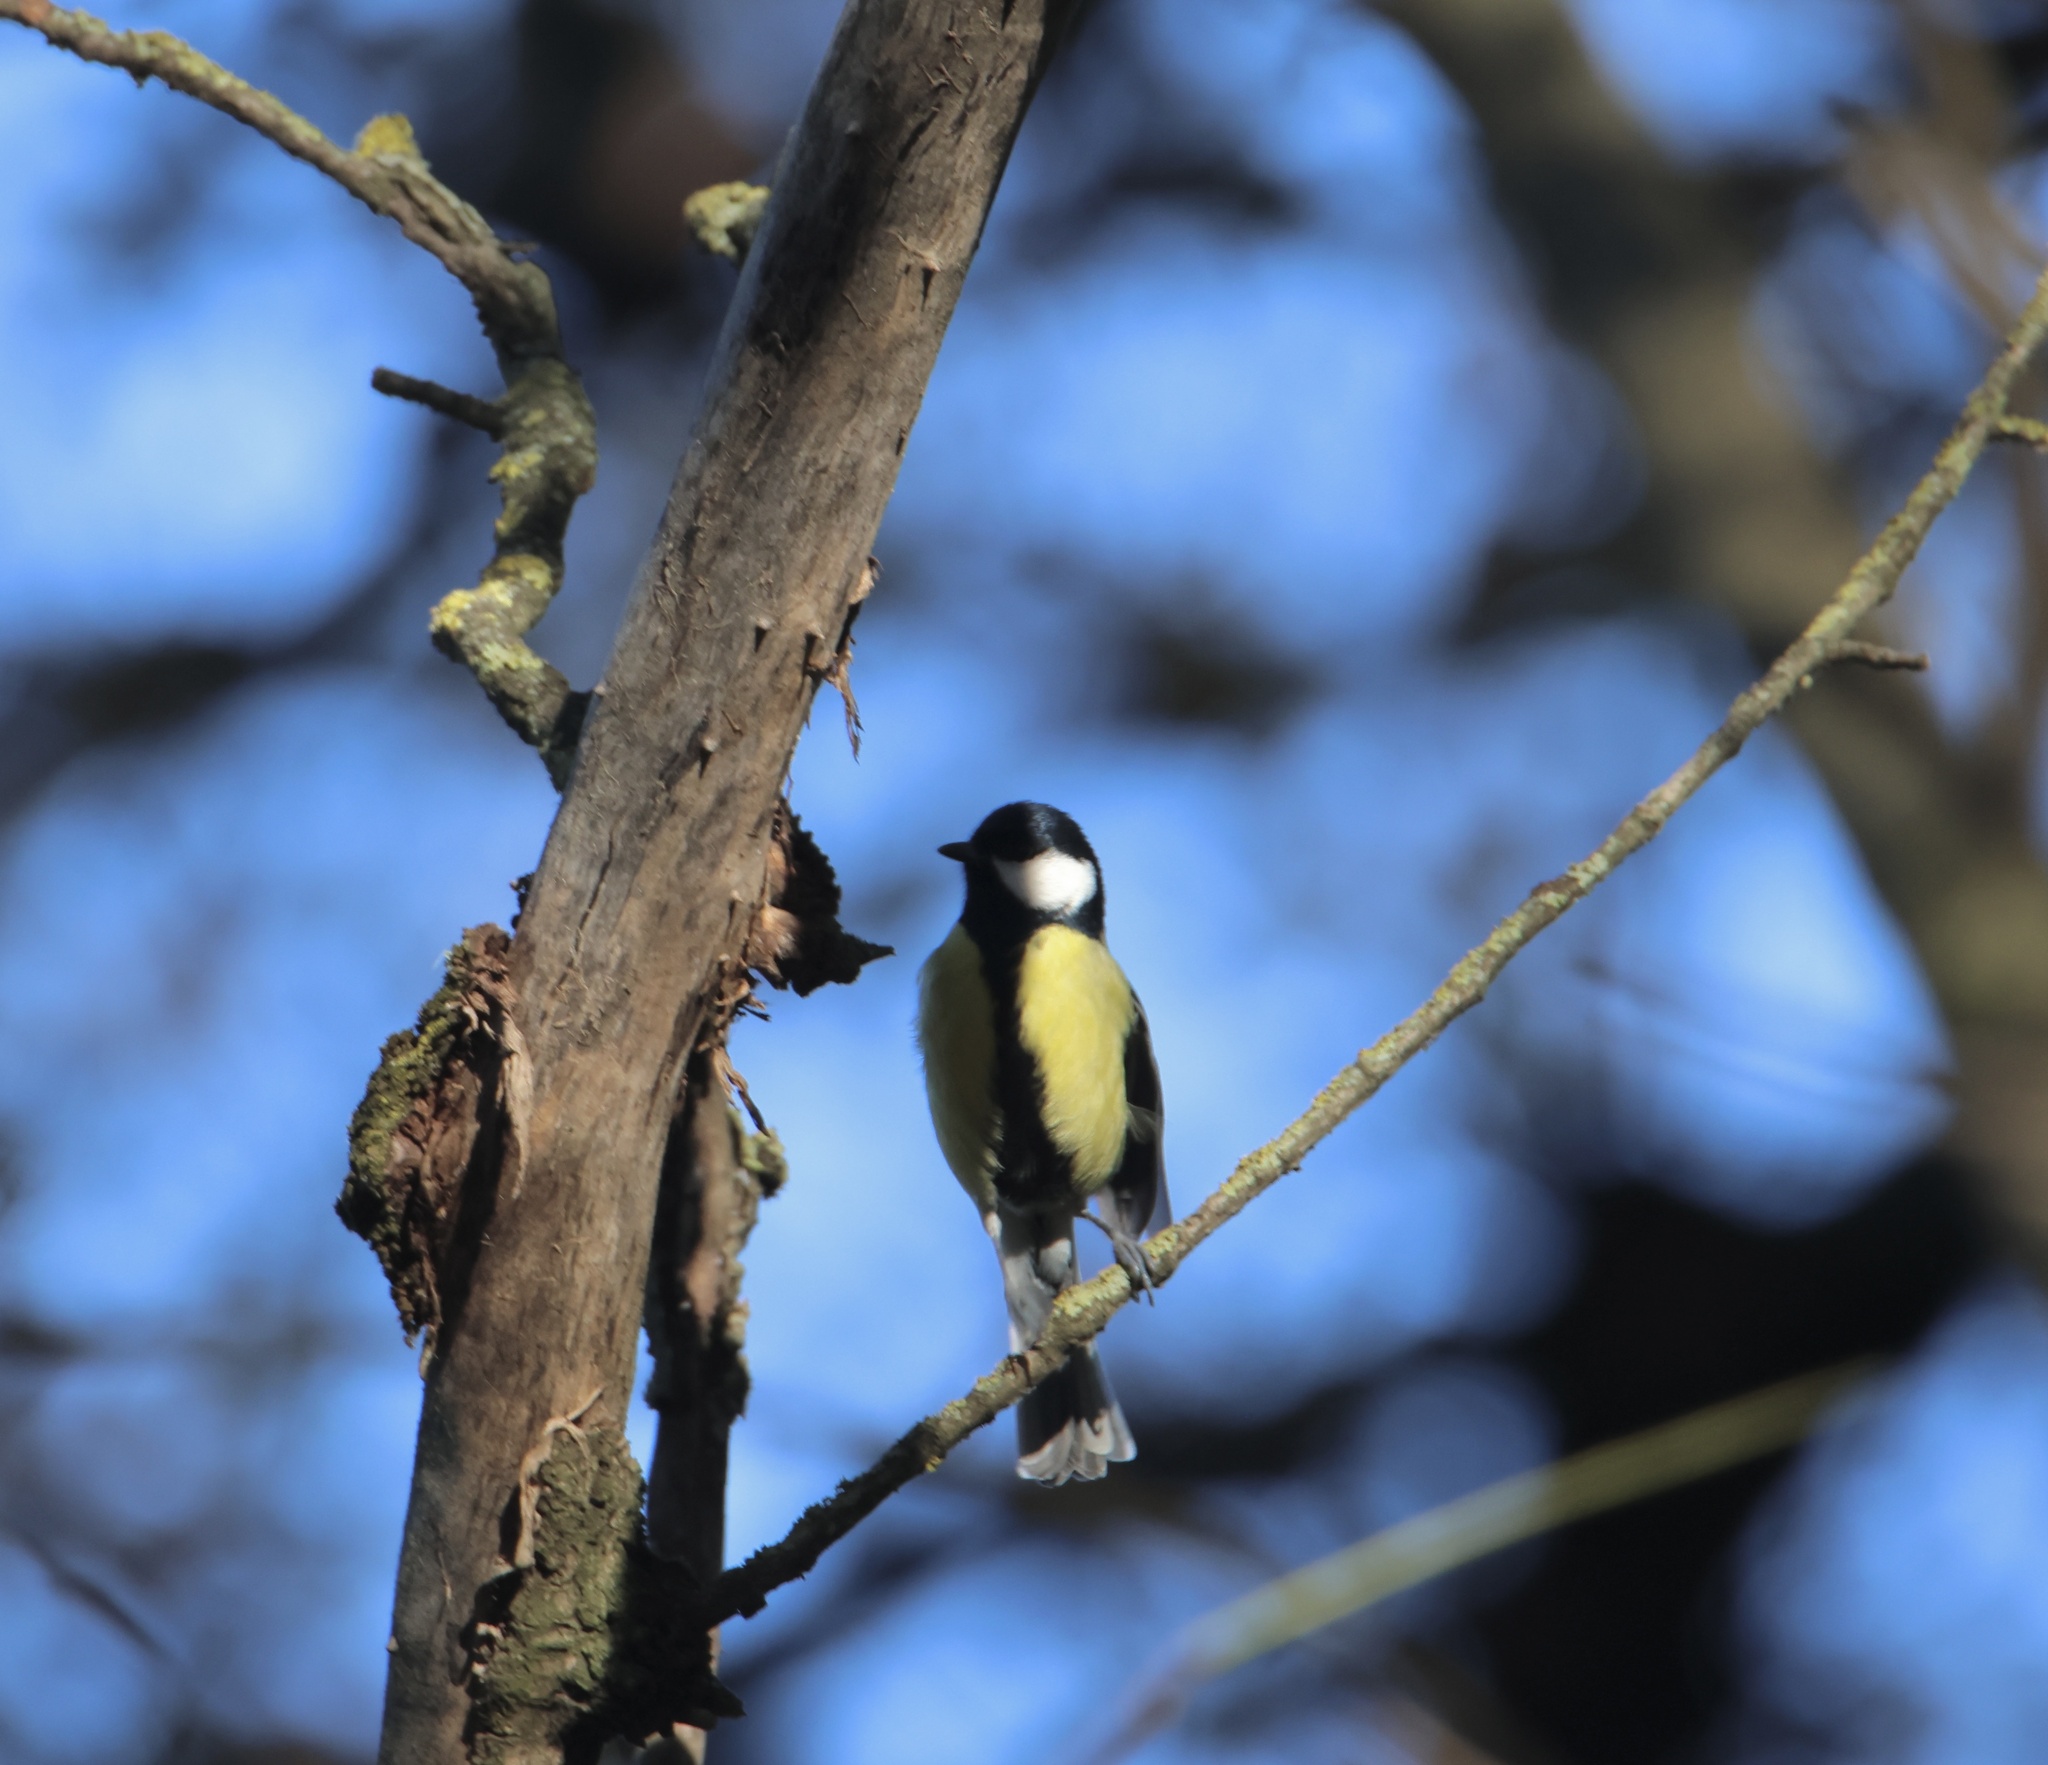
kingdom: Animalia
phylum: Chordata
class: Aves
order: Passeriformes
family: Paridae
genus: Parus
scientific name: Parus major
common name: Great tit
